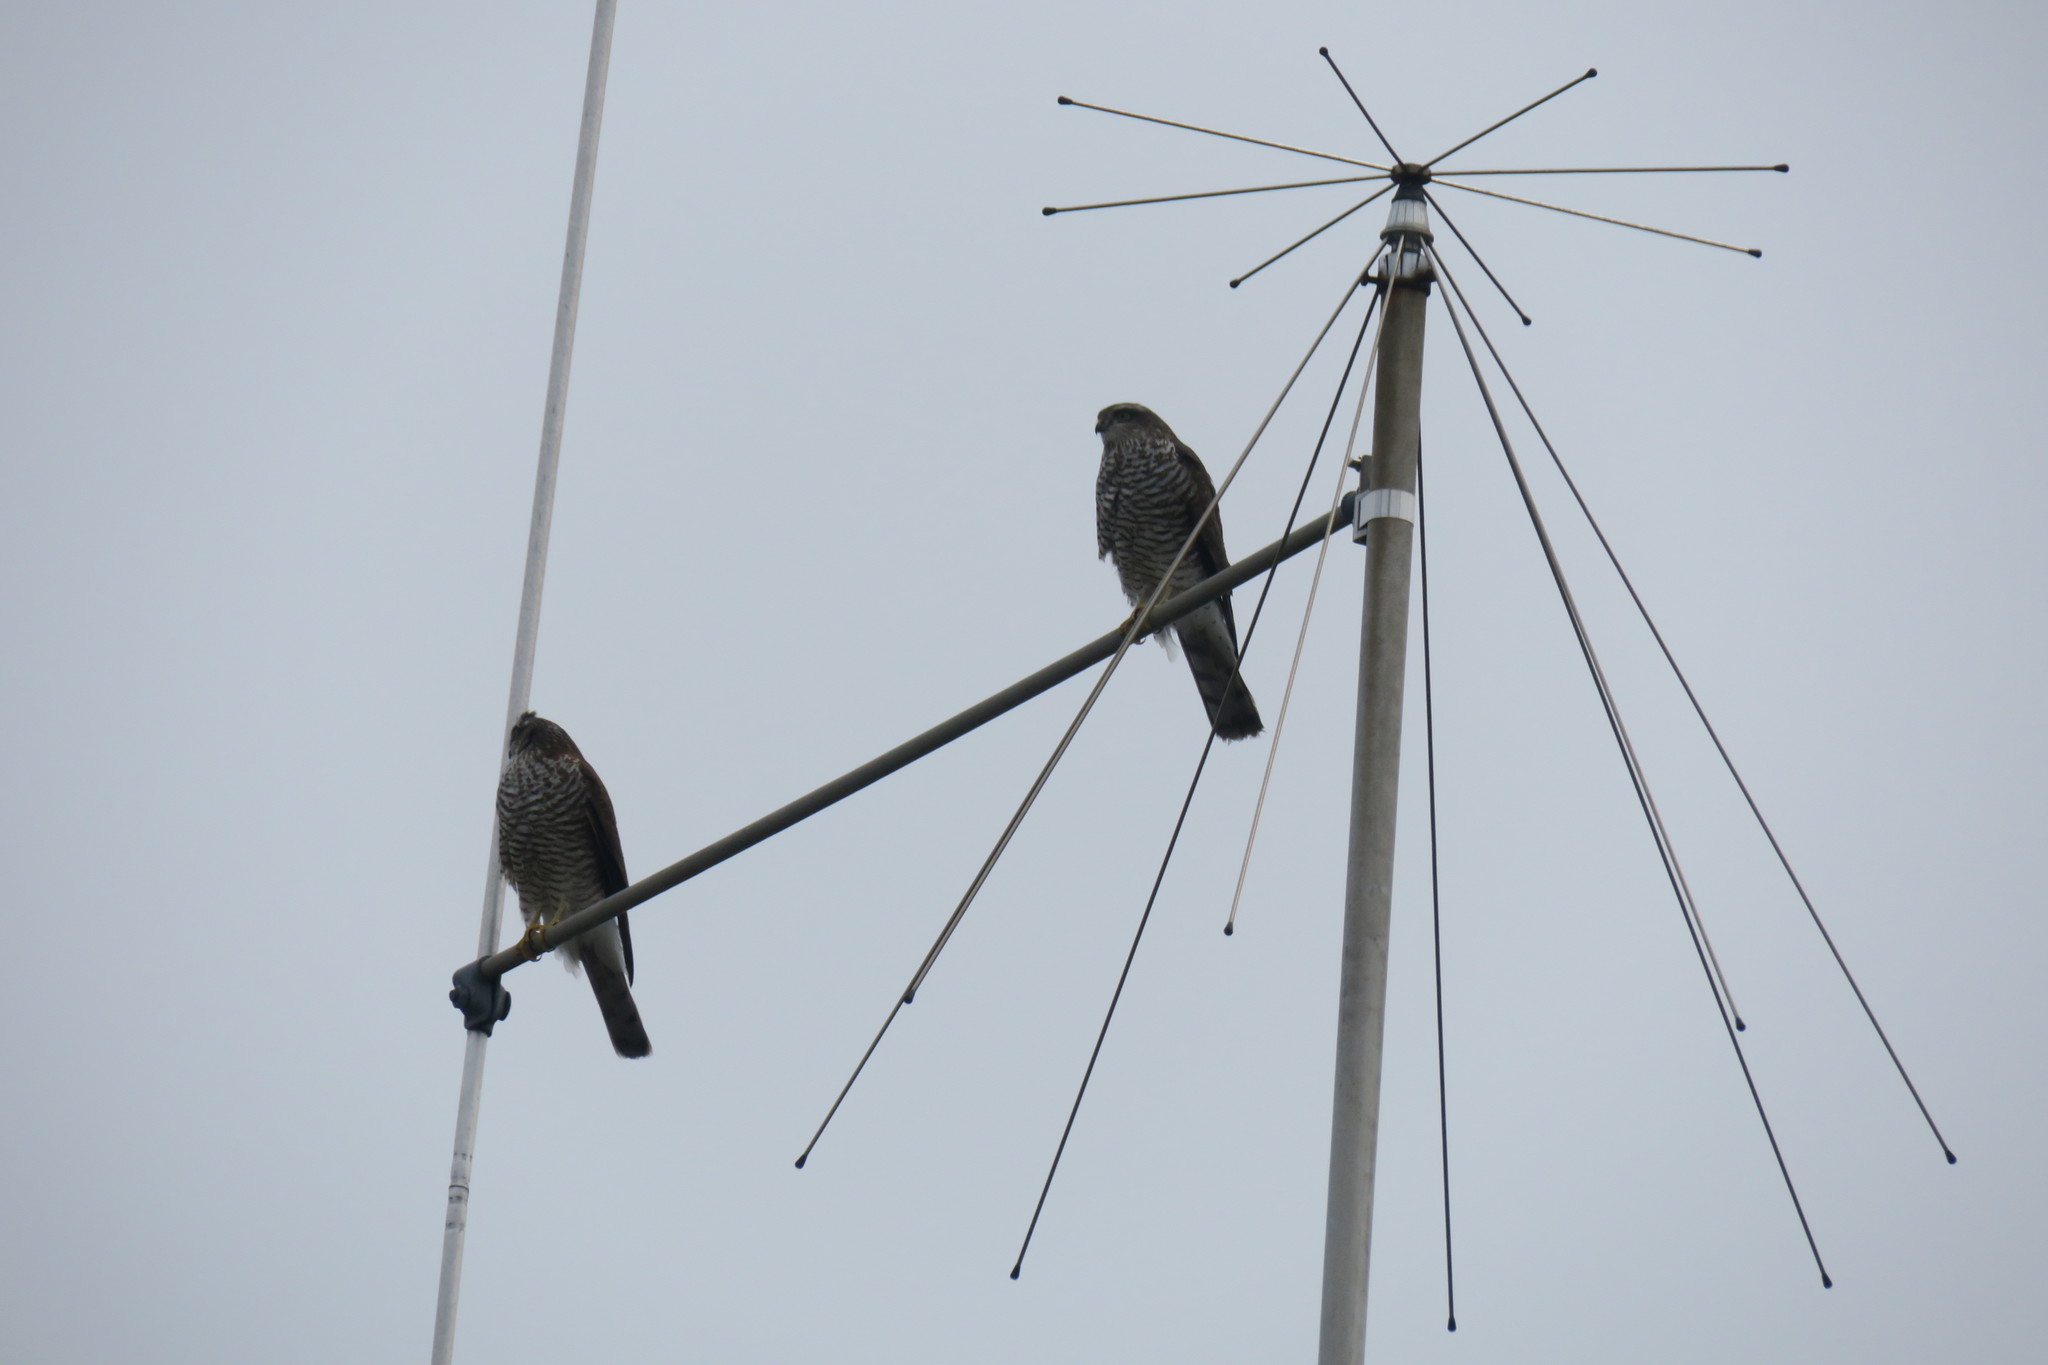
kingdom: Animalia
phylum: Chordata
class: Aves
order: Accipitriformes
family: Accipitridae
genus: Accipiter
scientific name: Accipiter nisus
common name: Eurasian sparrowhawk
